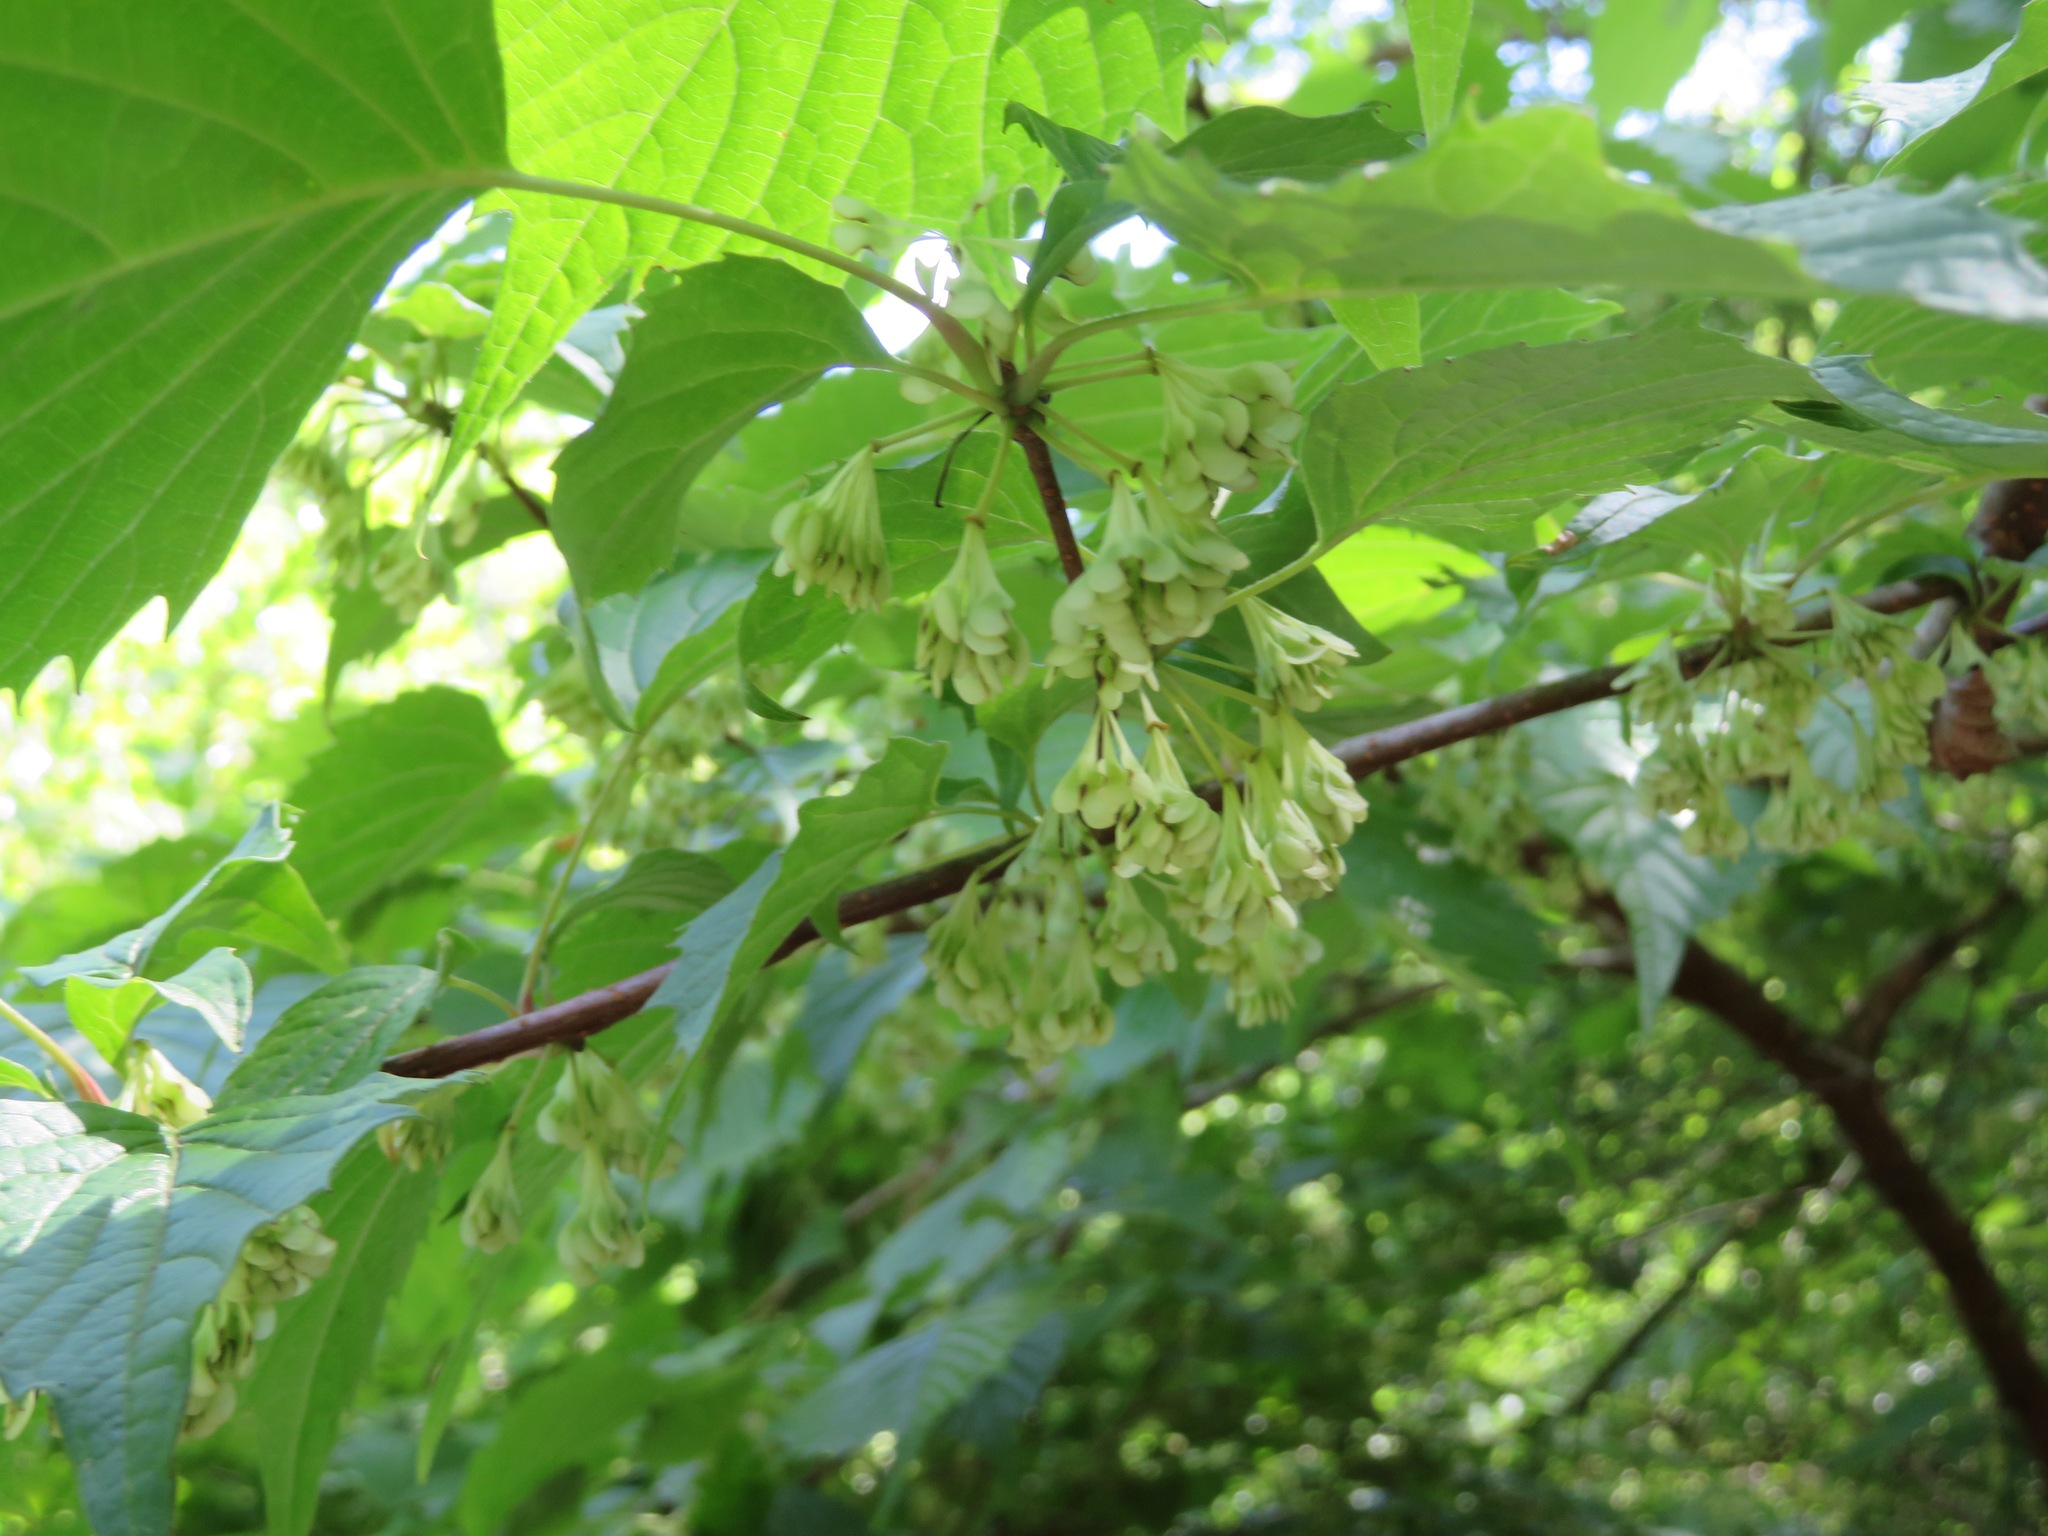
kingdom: Plantae
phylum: Tracheophyta
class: Magnoliopsida
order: Ranunculales
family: Eupteleaceae
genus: Euptelea
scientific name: Euptelea polyandra
